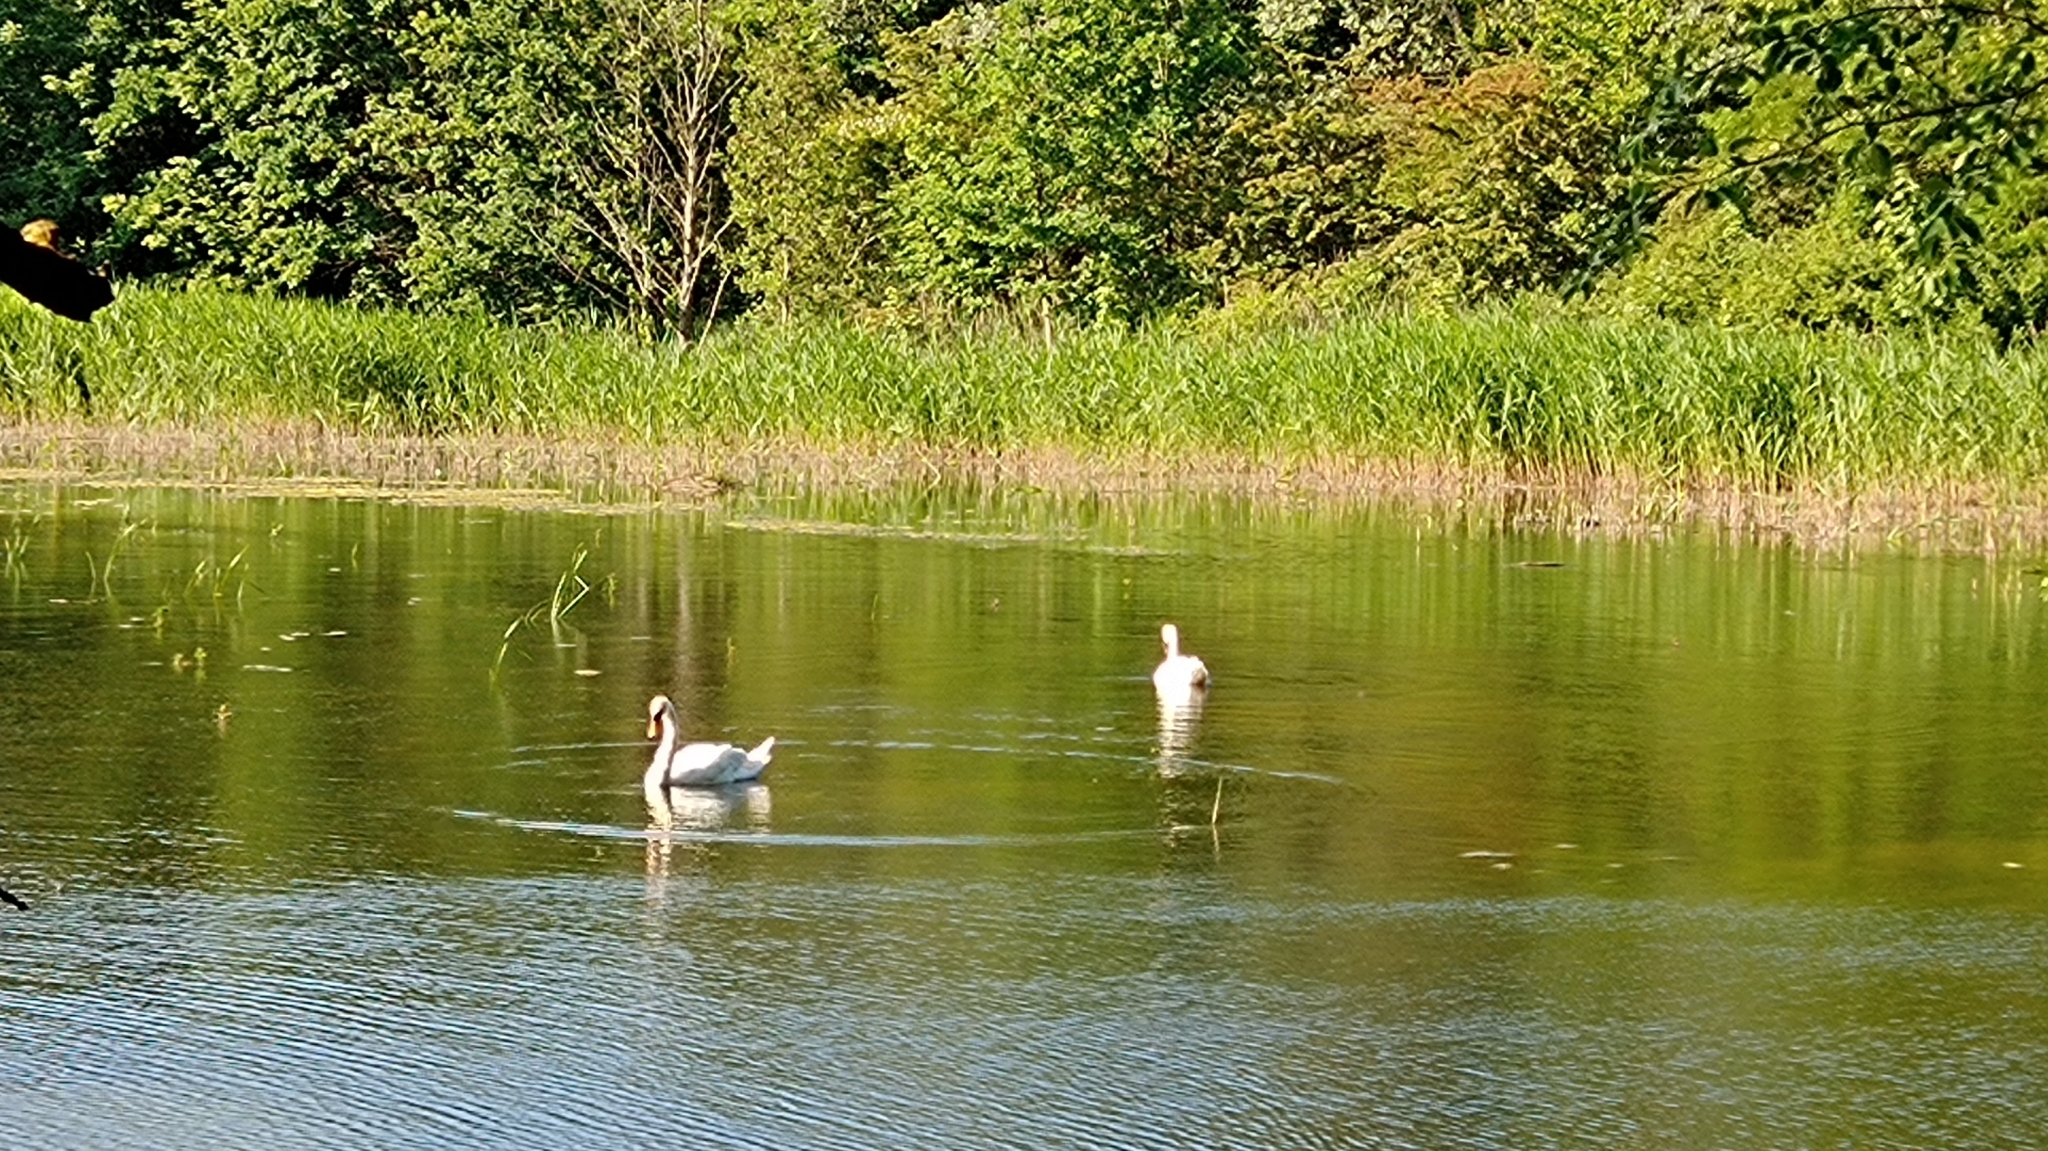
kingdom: Animalia
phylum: Chordata
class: Aves
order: Anseriformes
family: Anatidae
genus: Cygnus
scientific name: Cygnus olor
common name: Mute swan
